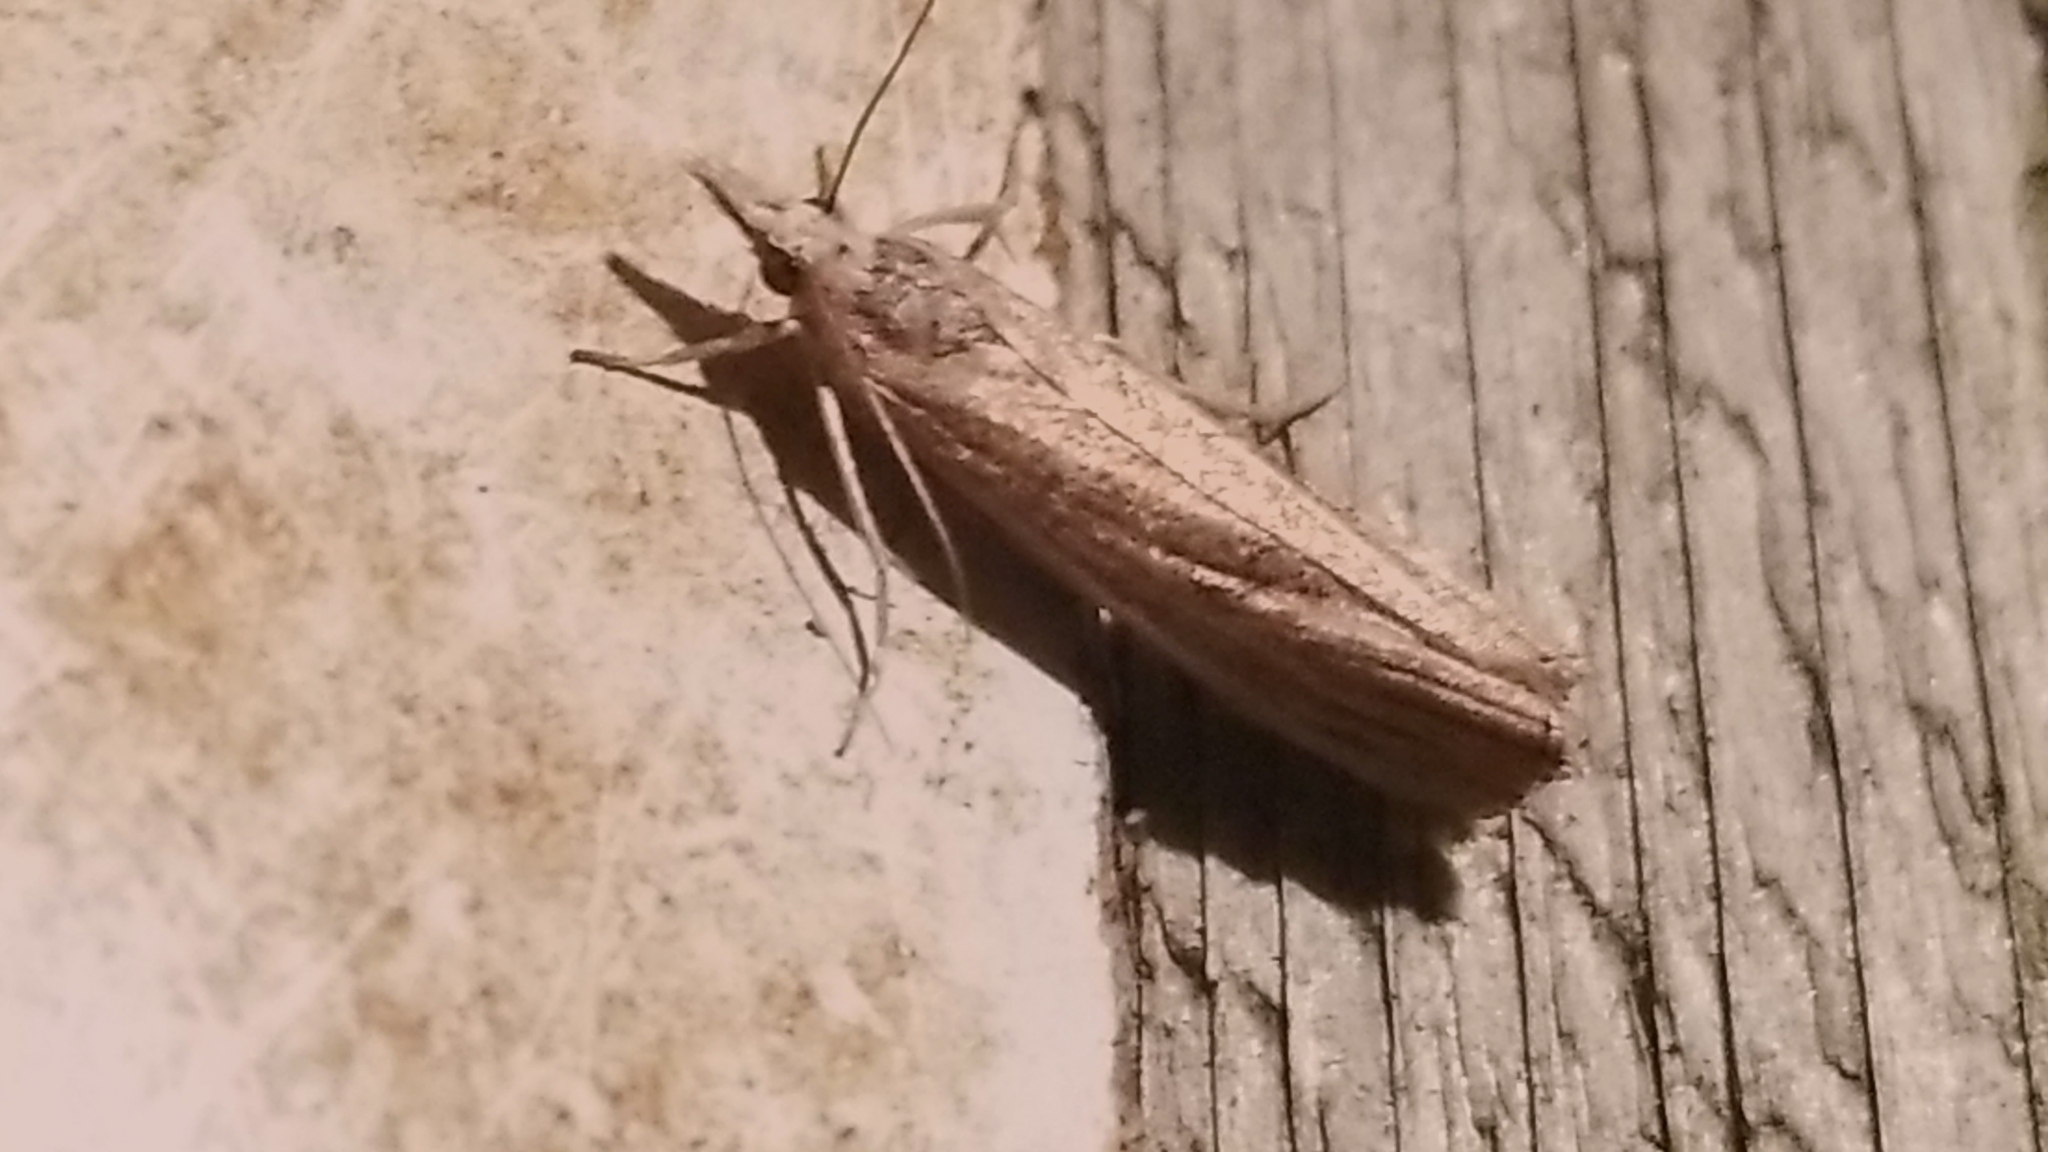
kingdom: Animalia
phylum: Arthropoda
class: Insecta
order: Lepidoptera
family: Crambidae
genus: Agriphila
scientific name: Agriphila vulgivagellus
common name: Vagabond crambus moth
